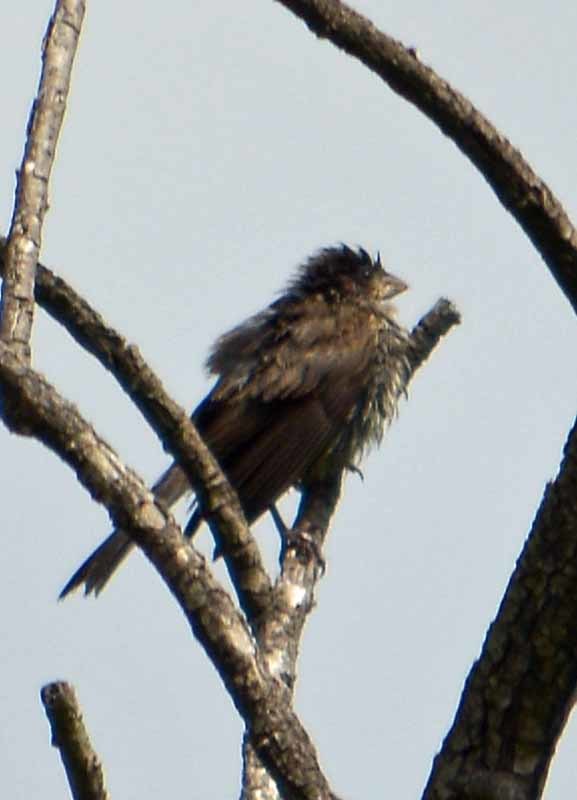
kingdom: Animalia
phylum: Chordata
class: Aves
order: Passeriformes
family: Fringillidae
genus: Haemorhous
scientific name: Haemorhous mexicanus
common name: House finch
